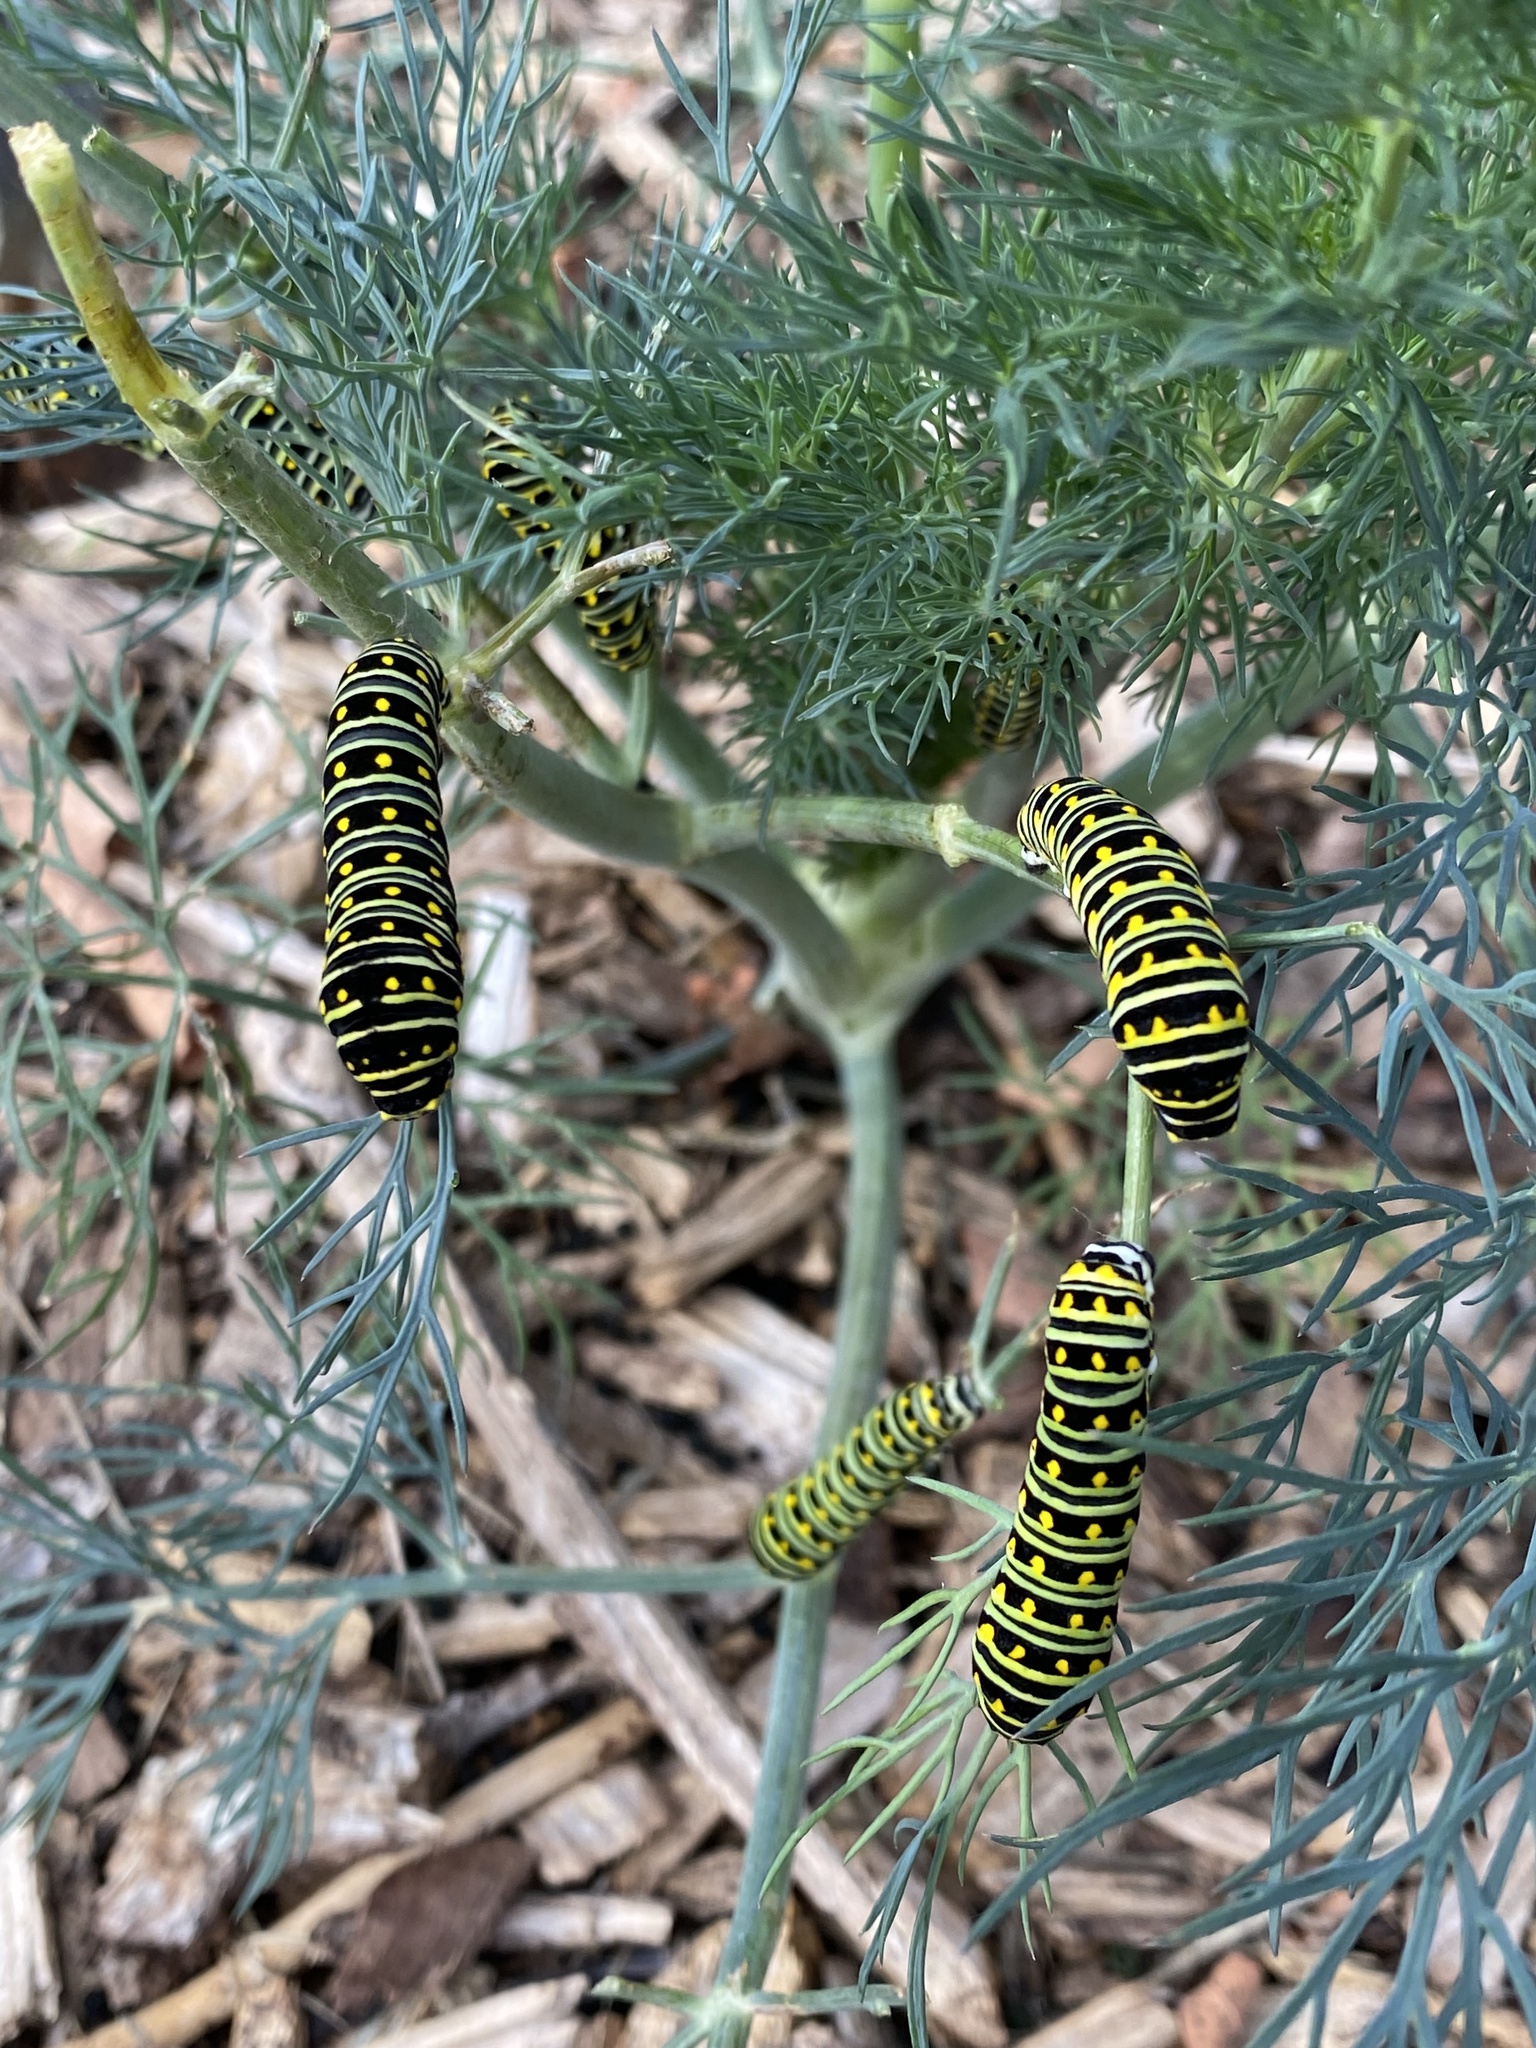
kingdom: Animalia
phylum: Arthropoda
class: Insecta
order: Lepidoptera
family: Papilionidae
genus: Papilio
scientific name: Papilio polyxenes
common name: Black swallowtail
